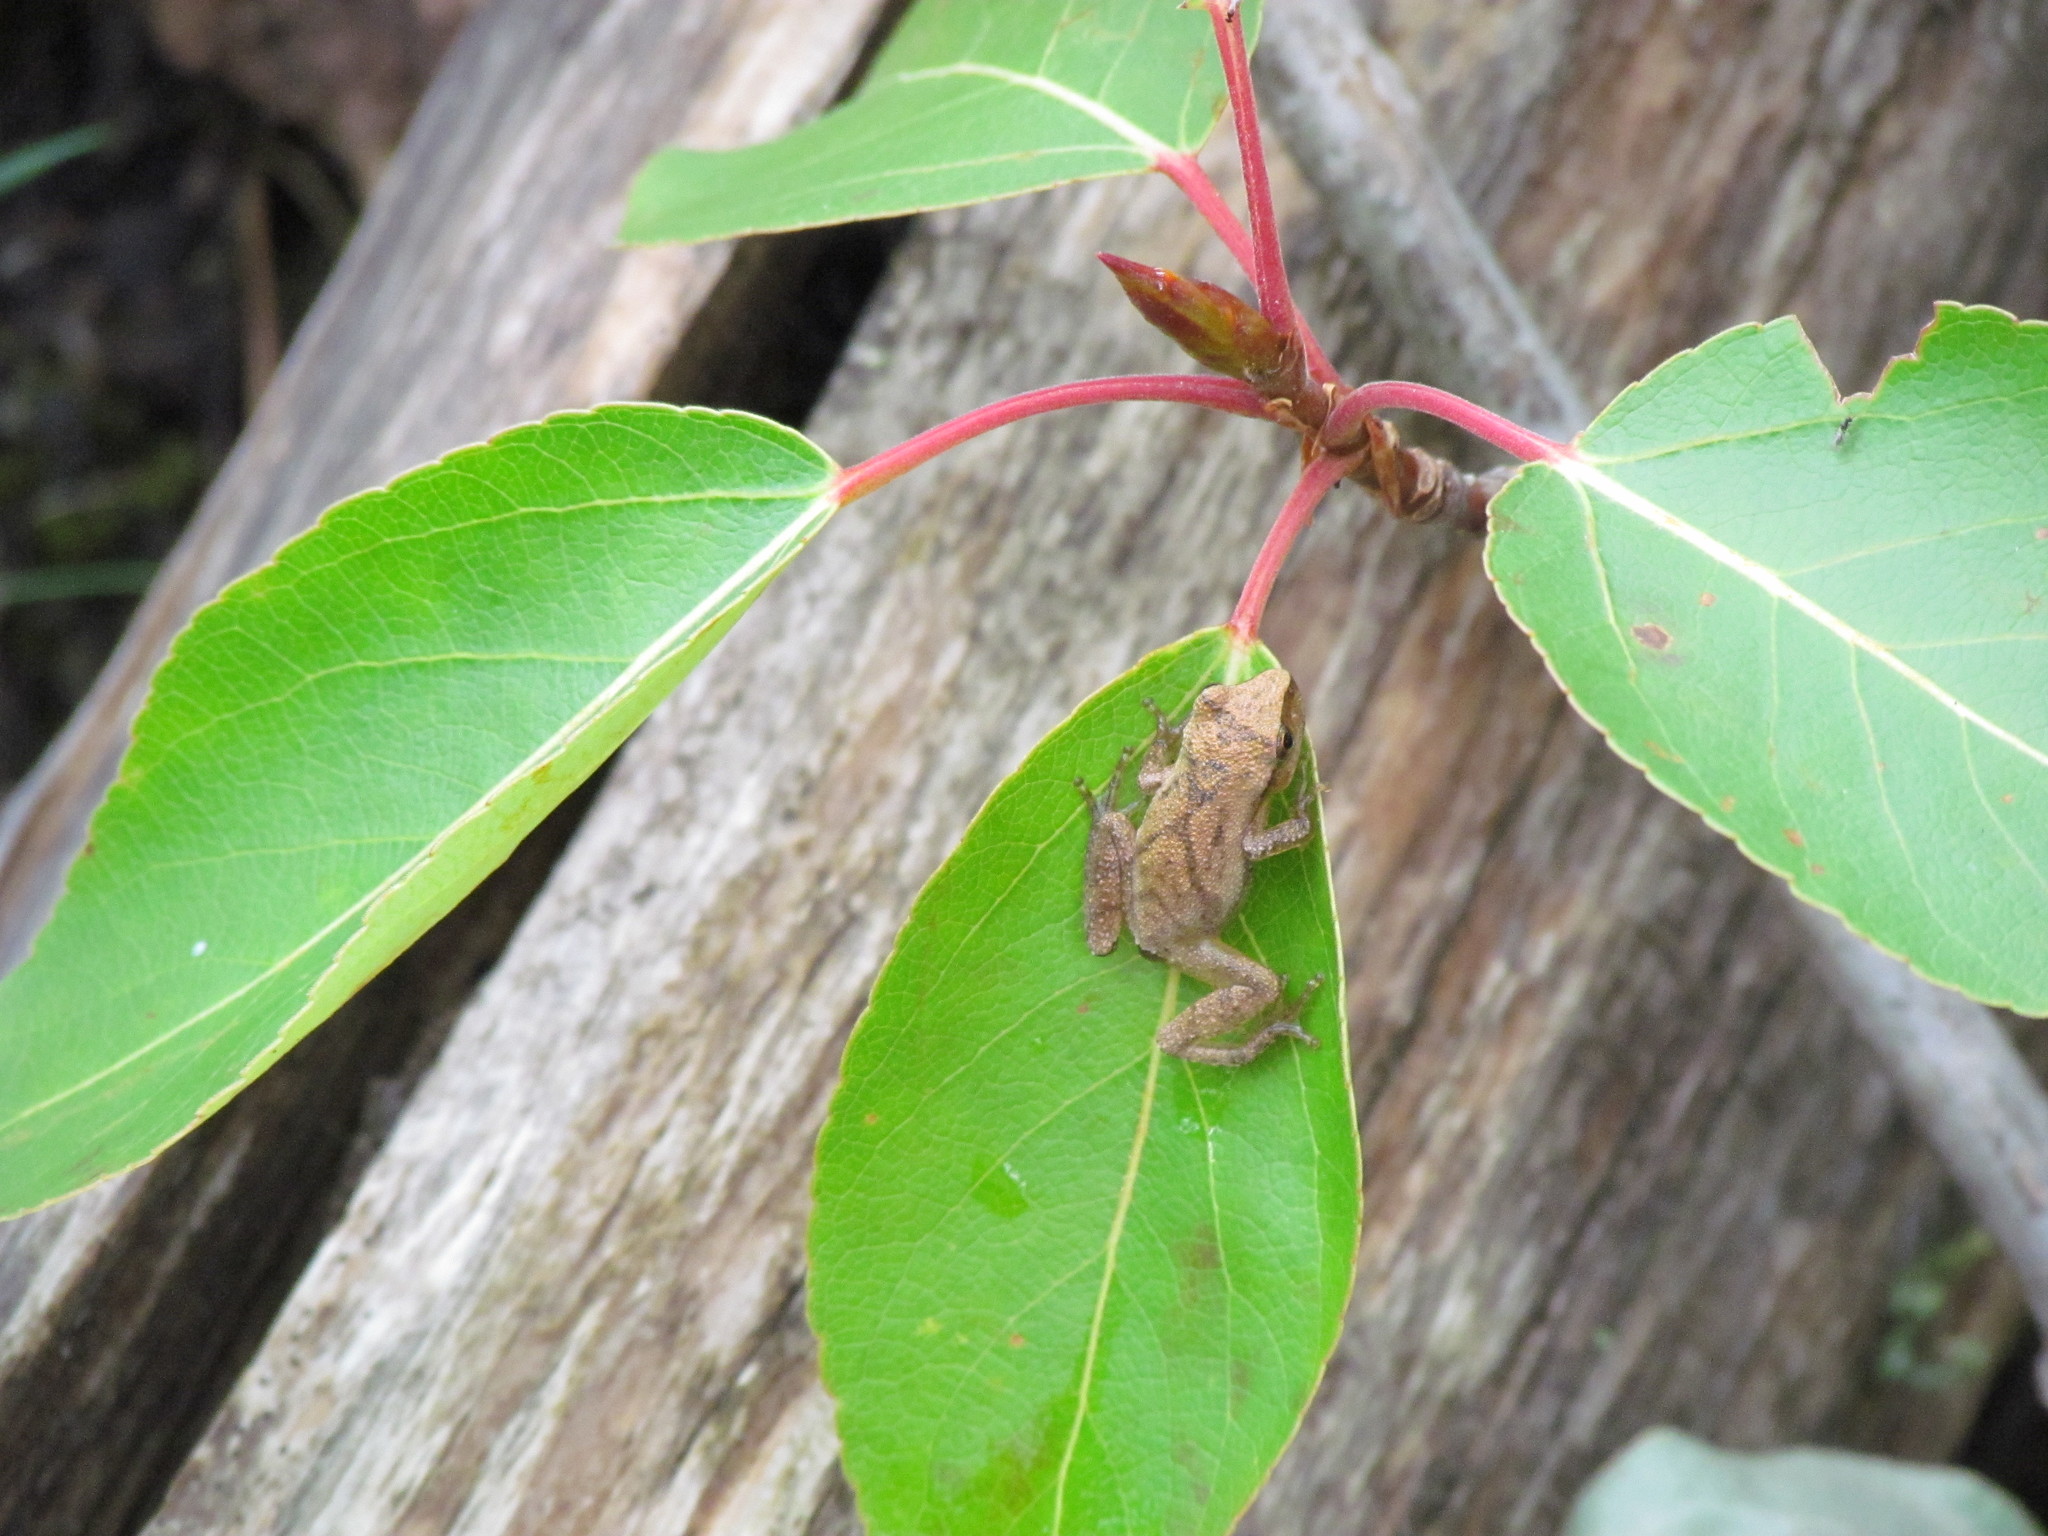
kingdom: Animalia
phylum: Chordata
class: Amphibia
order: Anura
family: Hylidae
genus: Pseudacris
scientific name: Pseudacris crucifer
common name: Spring peeper
